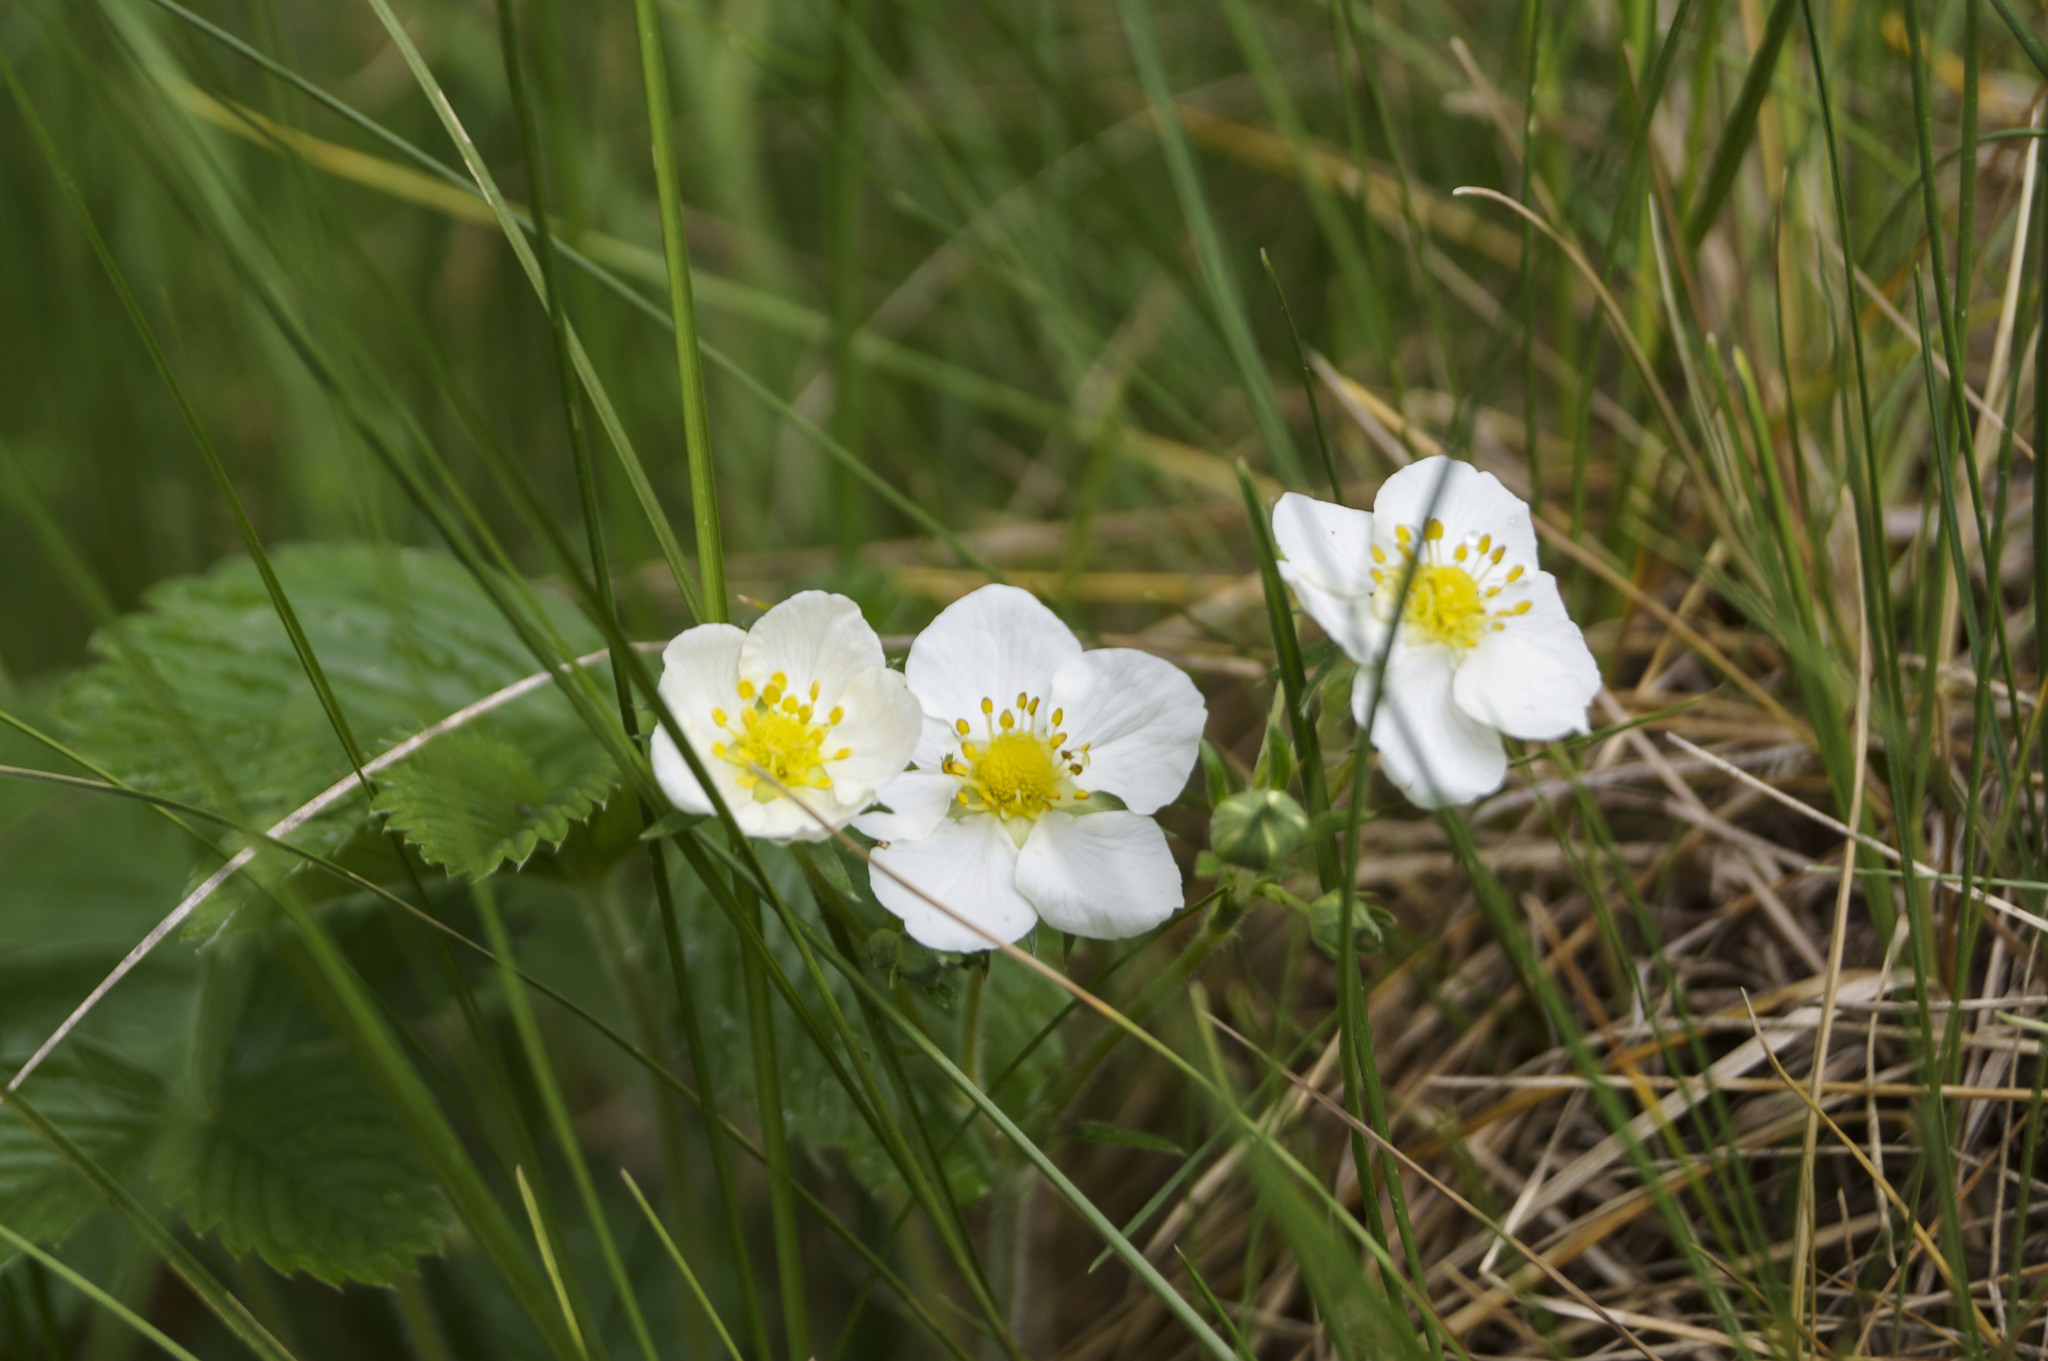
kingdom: Plantae
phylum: Tracheophyta
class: Magnoliopsida
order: Rosales
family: Rosaceae
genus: Fragaria
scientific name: Fragaria viridis
